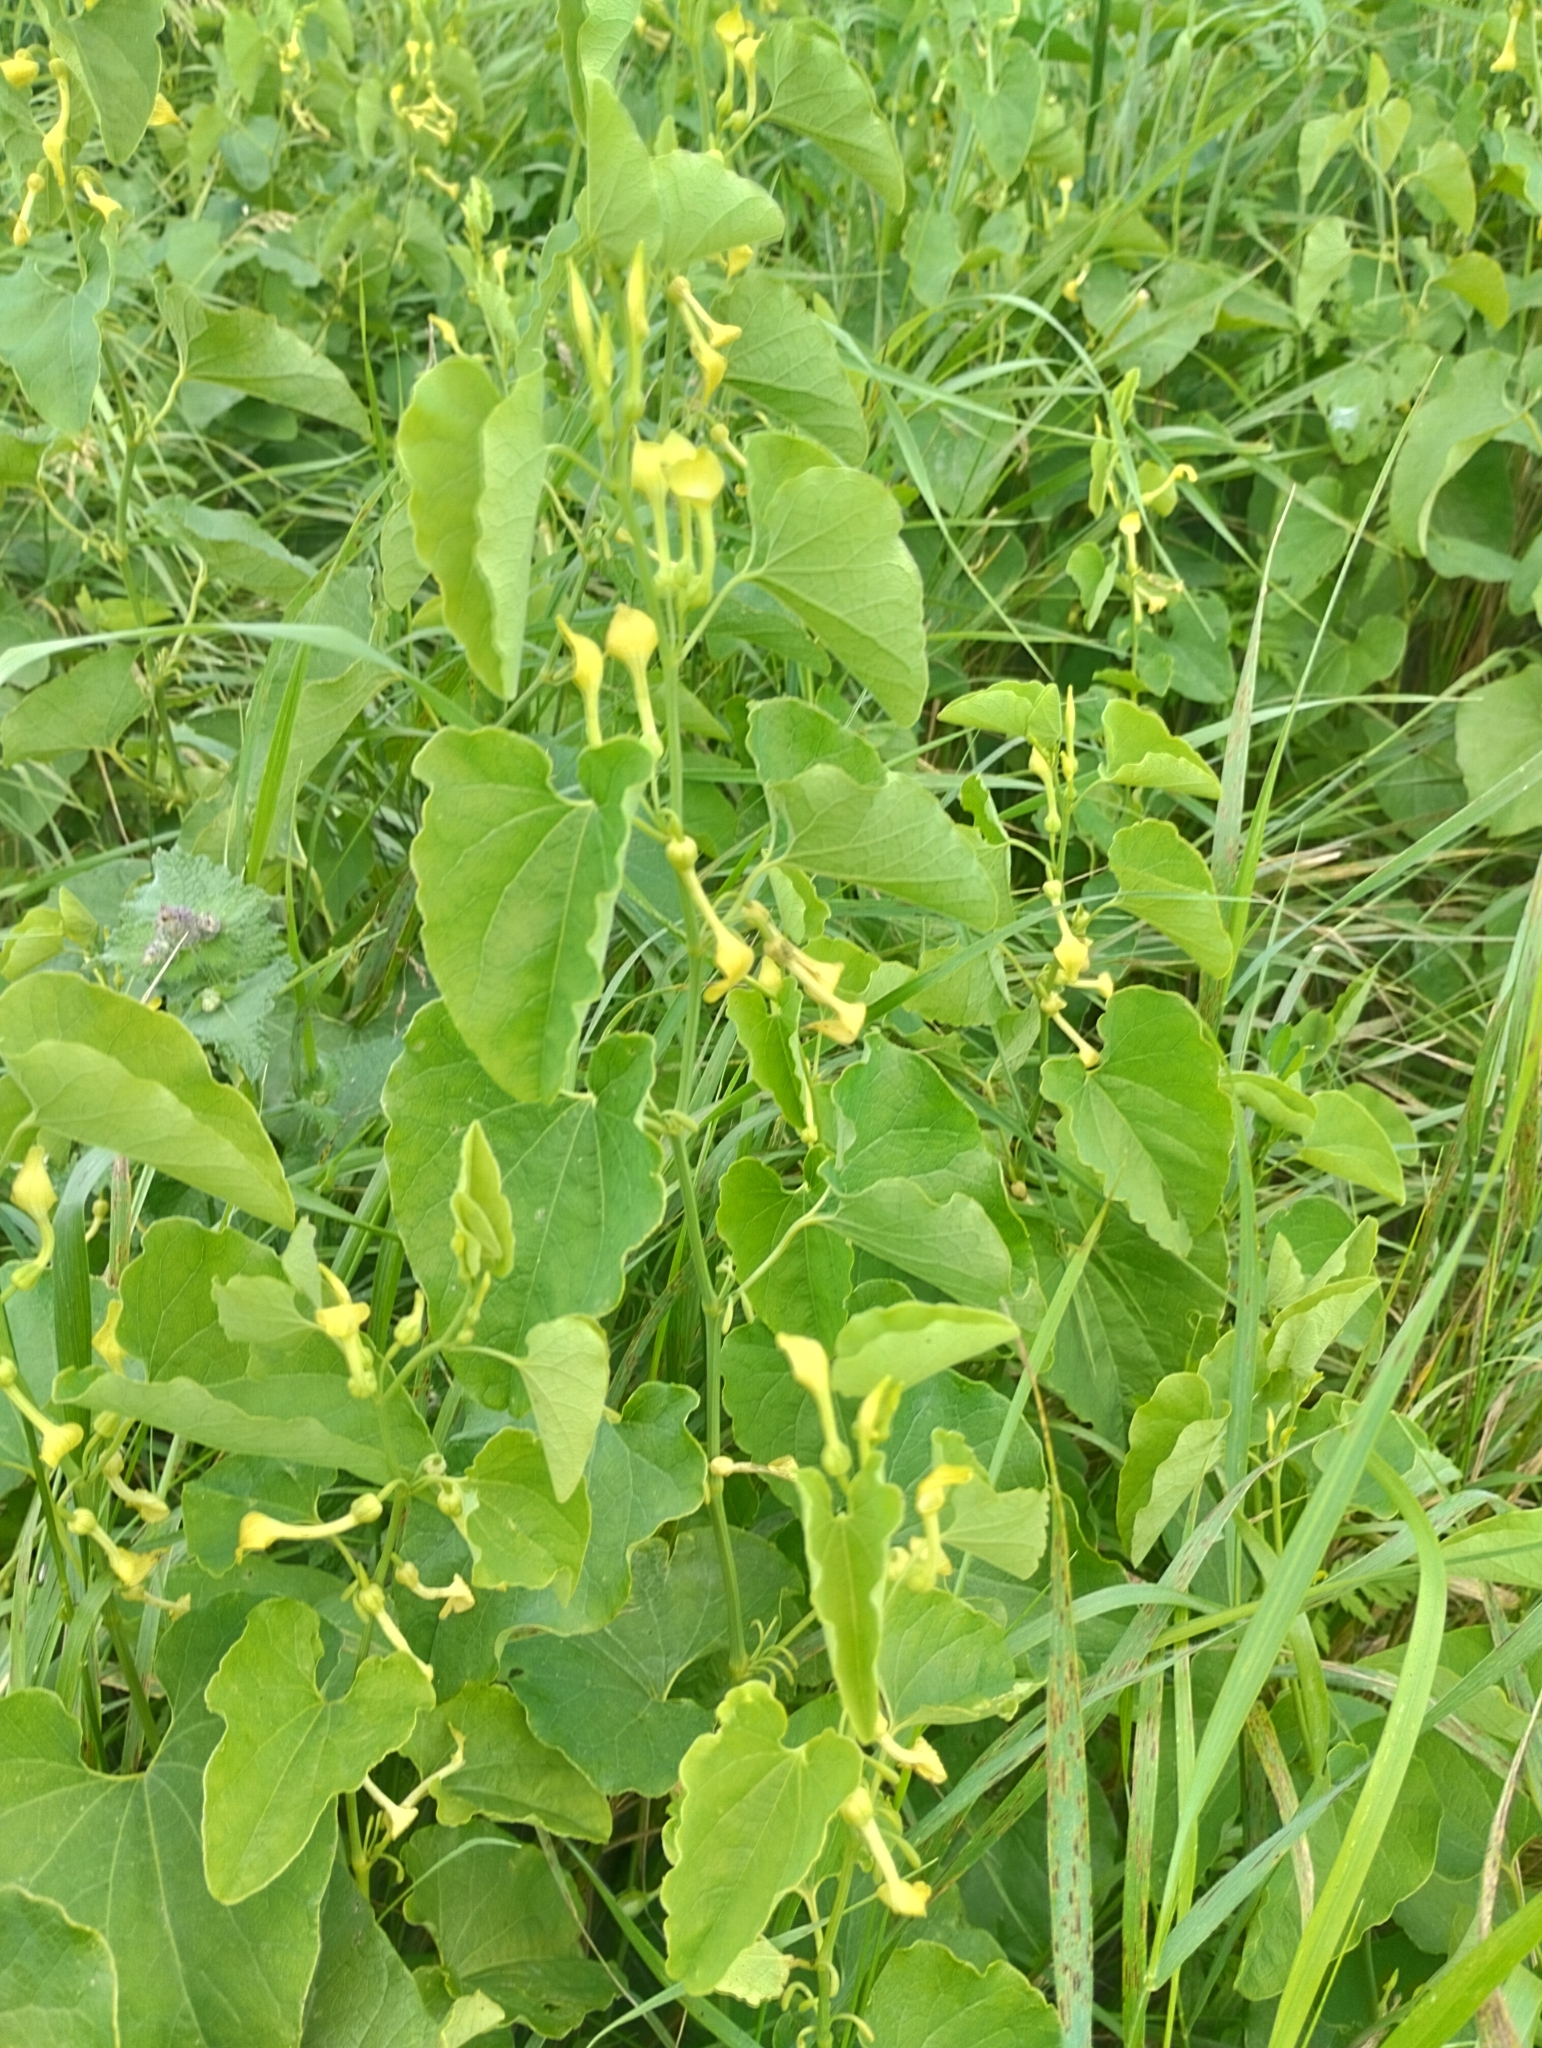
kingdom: Plantae
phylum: Tracheophyta
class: Magnoliopsida
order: Piperales
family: Aristolochiaceae
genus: Aristolochia
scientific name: Aristolochia clematitis
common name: Birthwort
